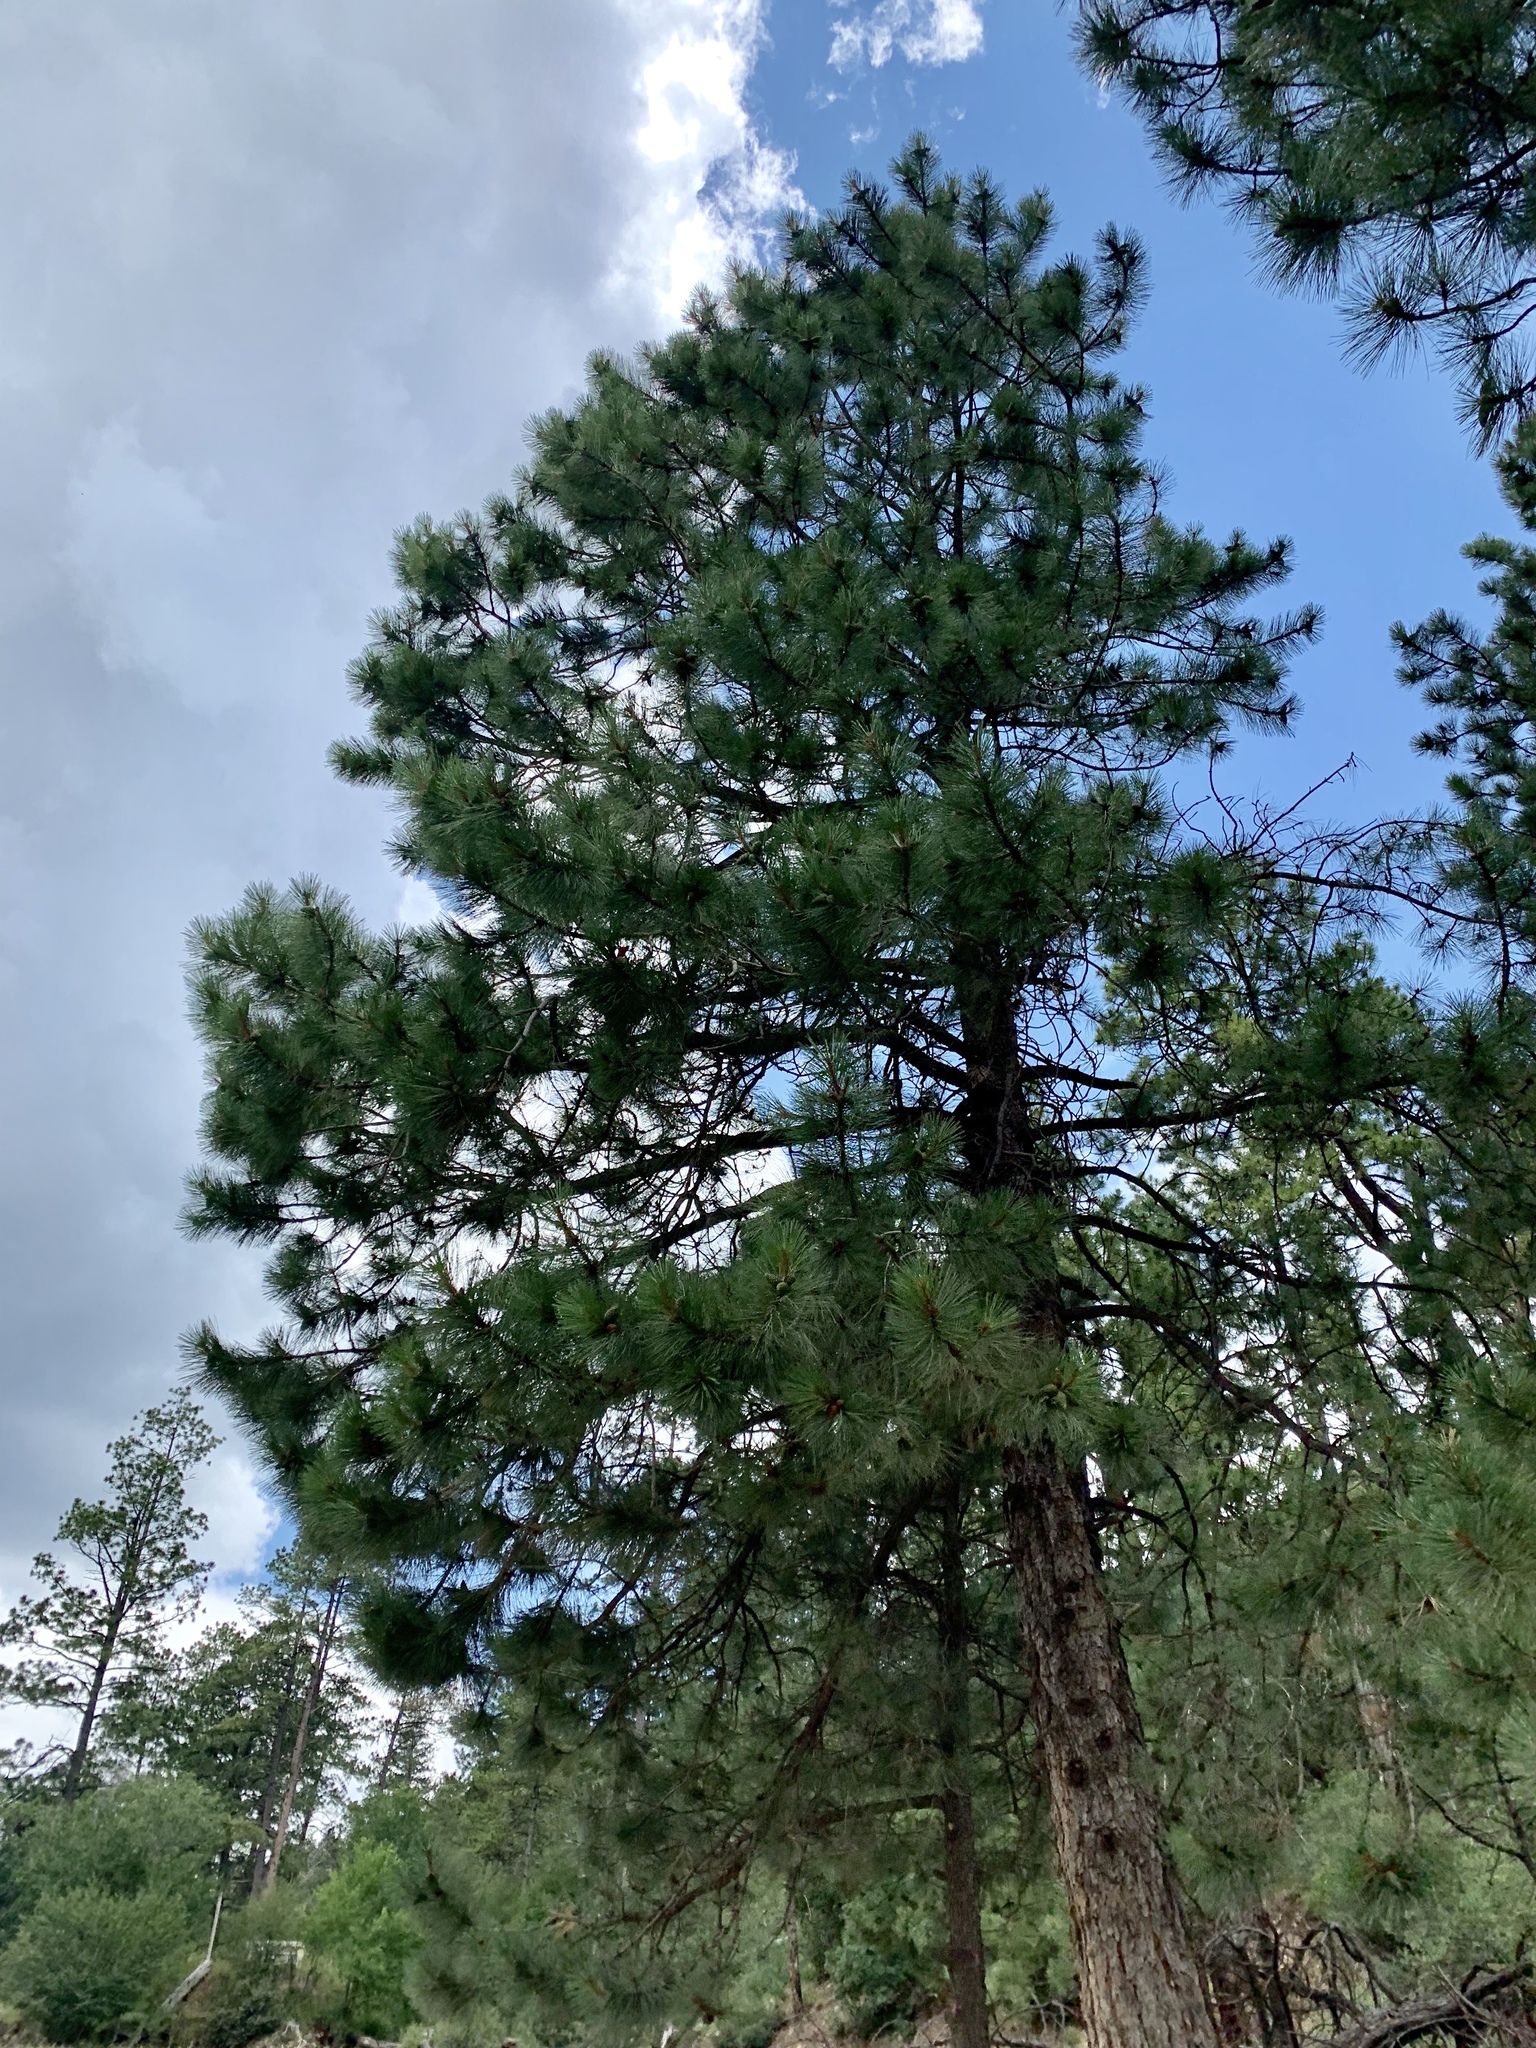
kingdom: Plantae
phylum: Tracheophyta
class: Pinopsida
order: Pinales
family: Pinaceae
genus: Pinus
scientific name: Pinus ponderosa
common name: Western yellow-pine
